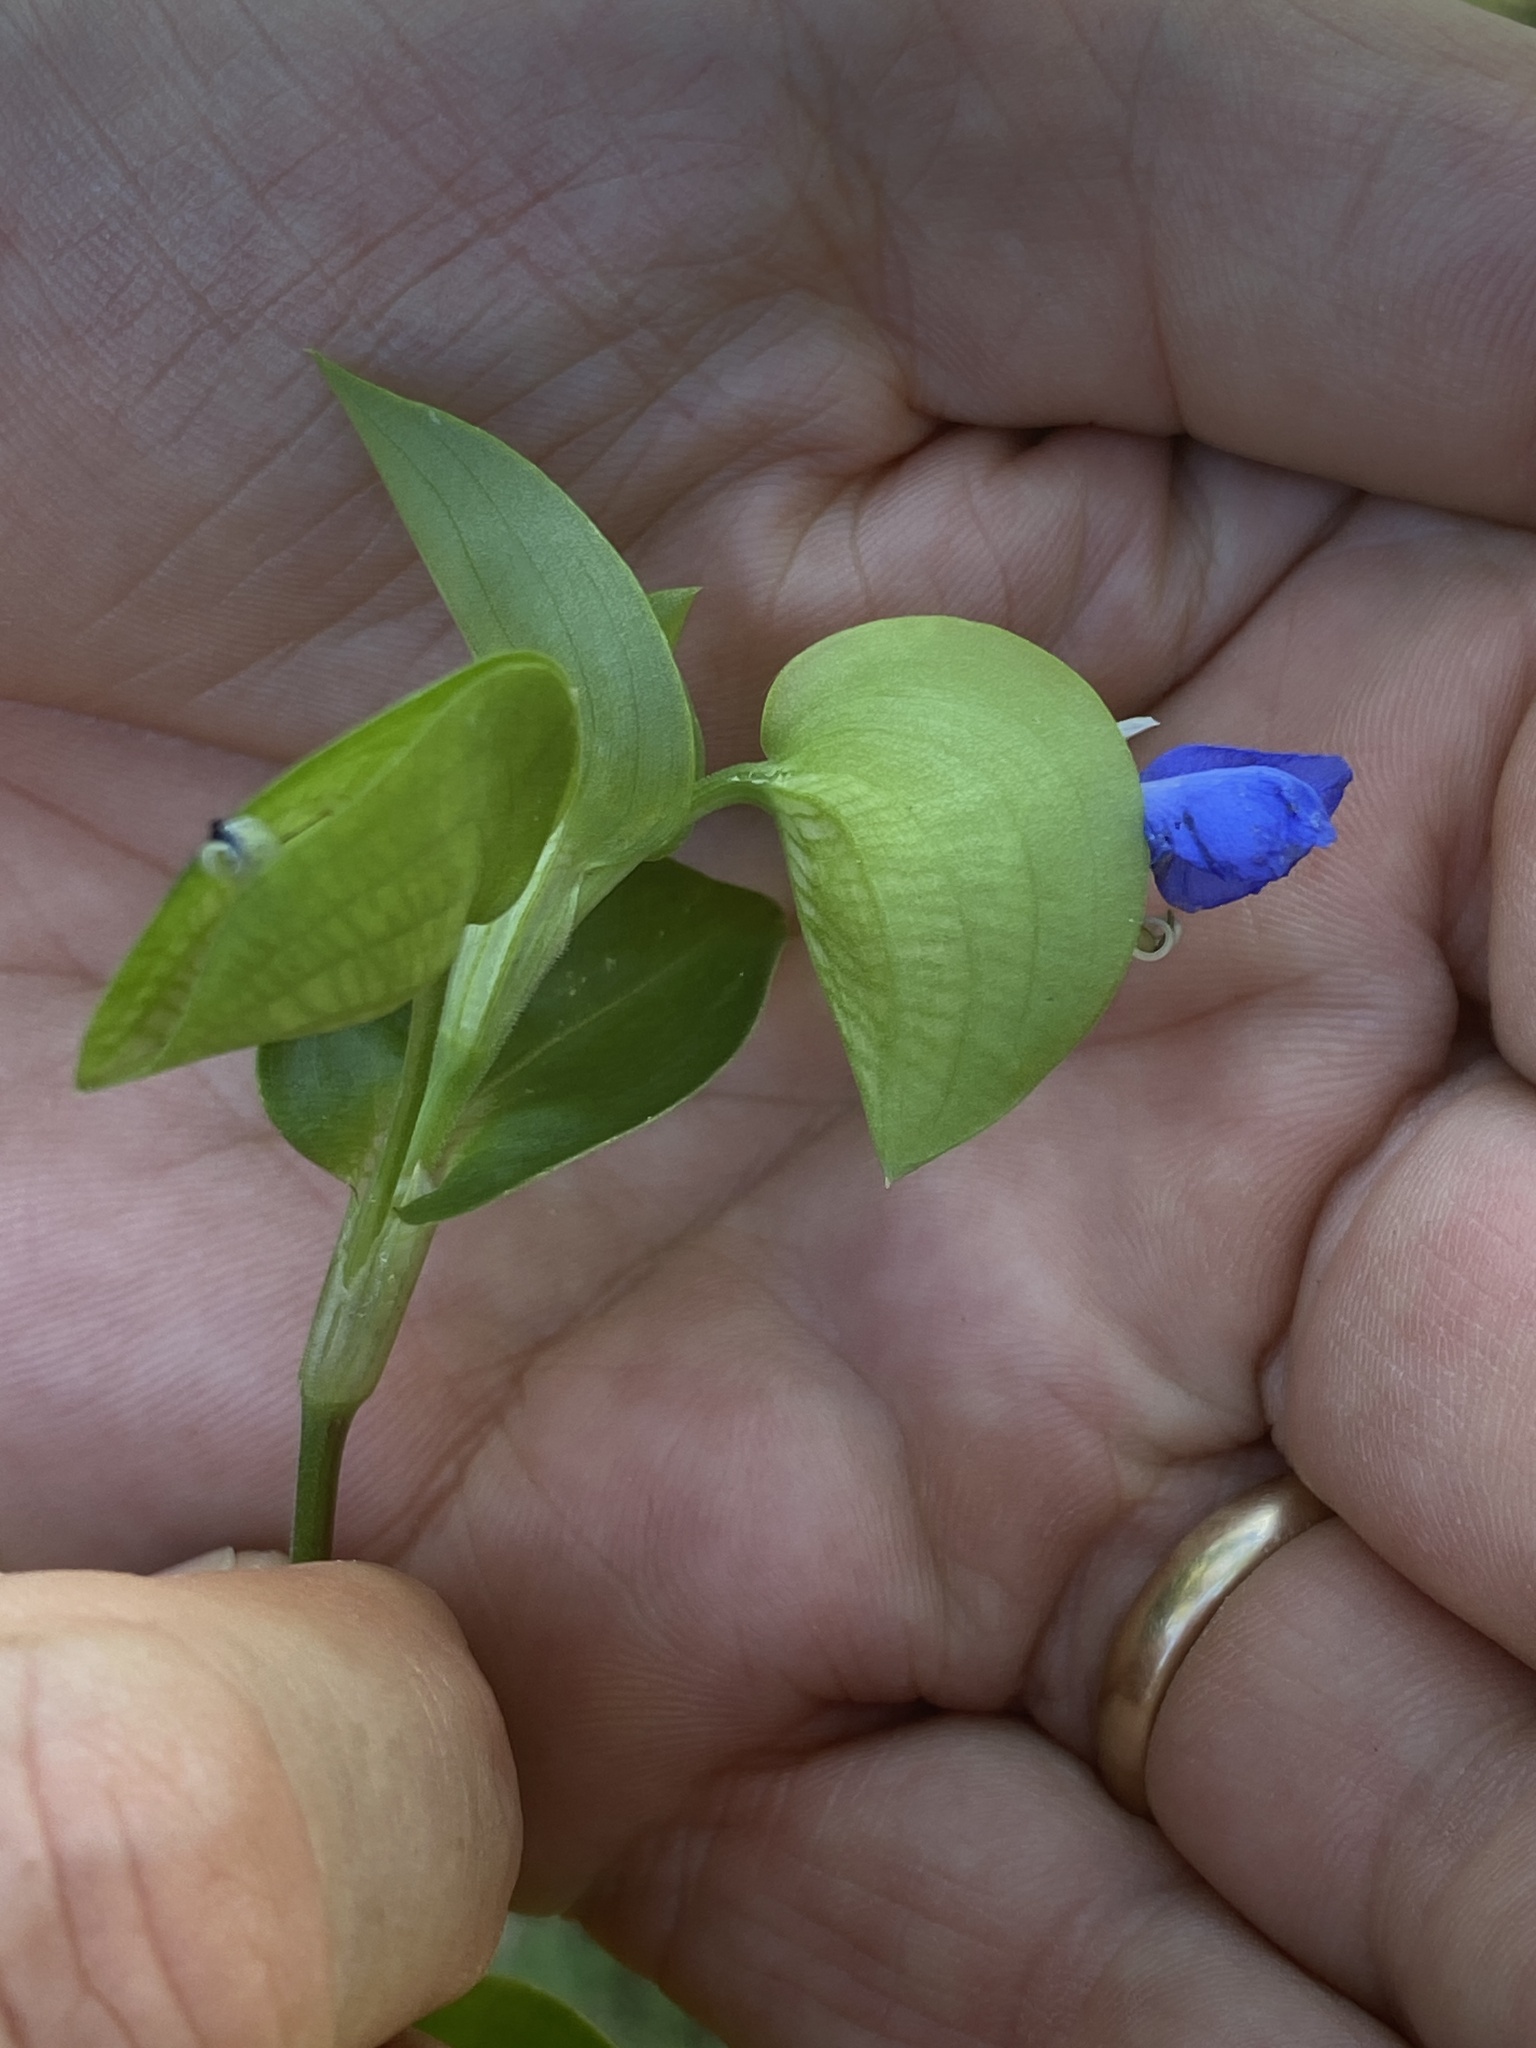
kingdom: Plantae
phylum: Tracheophyta
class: Liliopsida
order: Commelinales
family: Commelinaceae
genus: Commelina
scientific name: Commelina communis
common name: Asiatic dayflower
